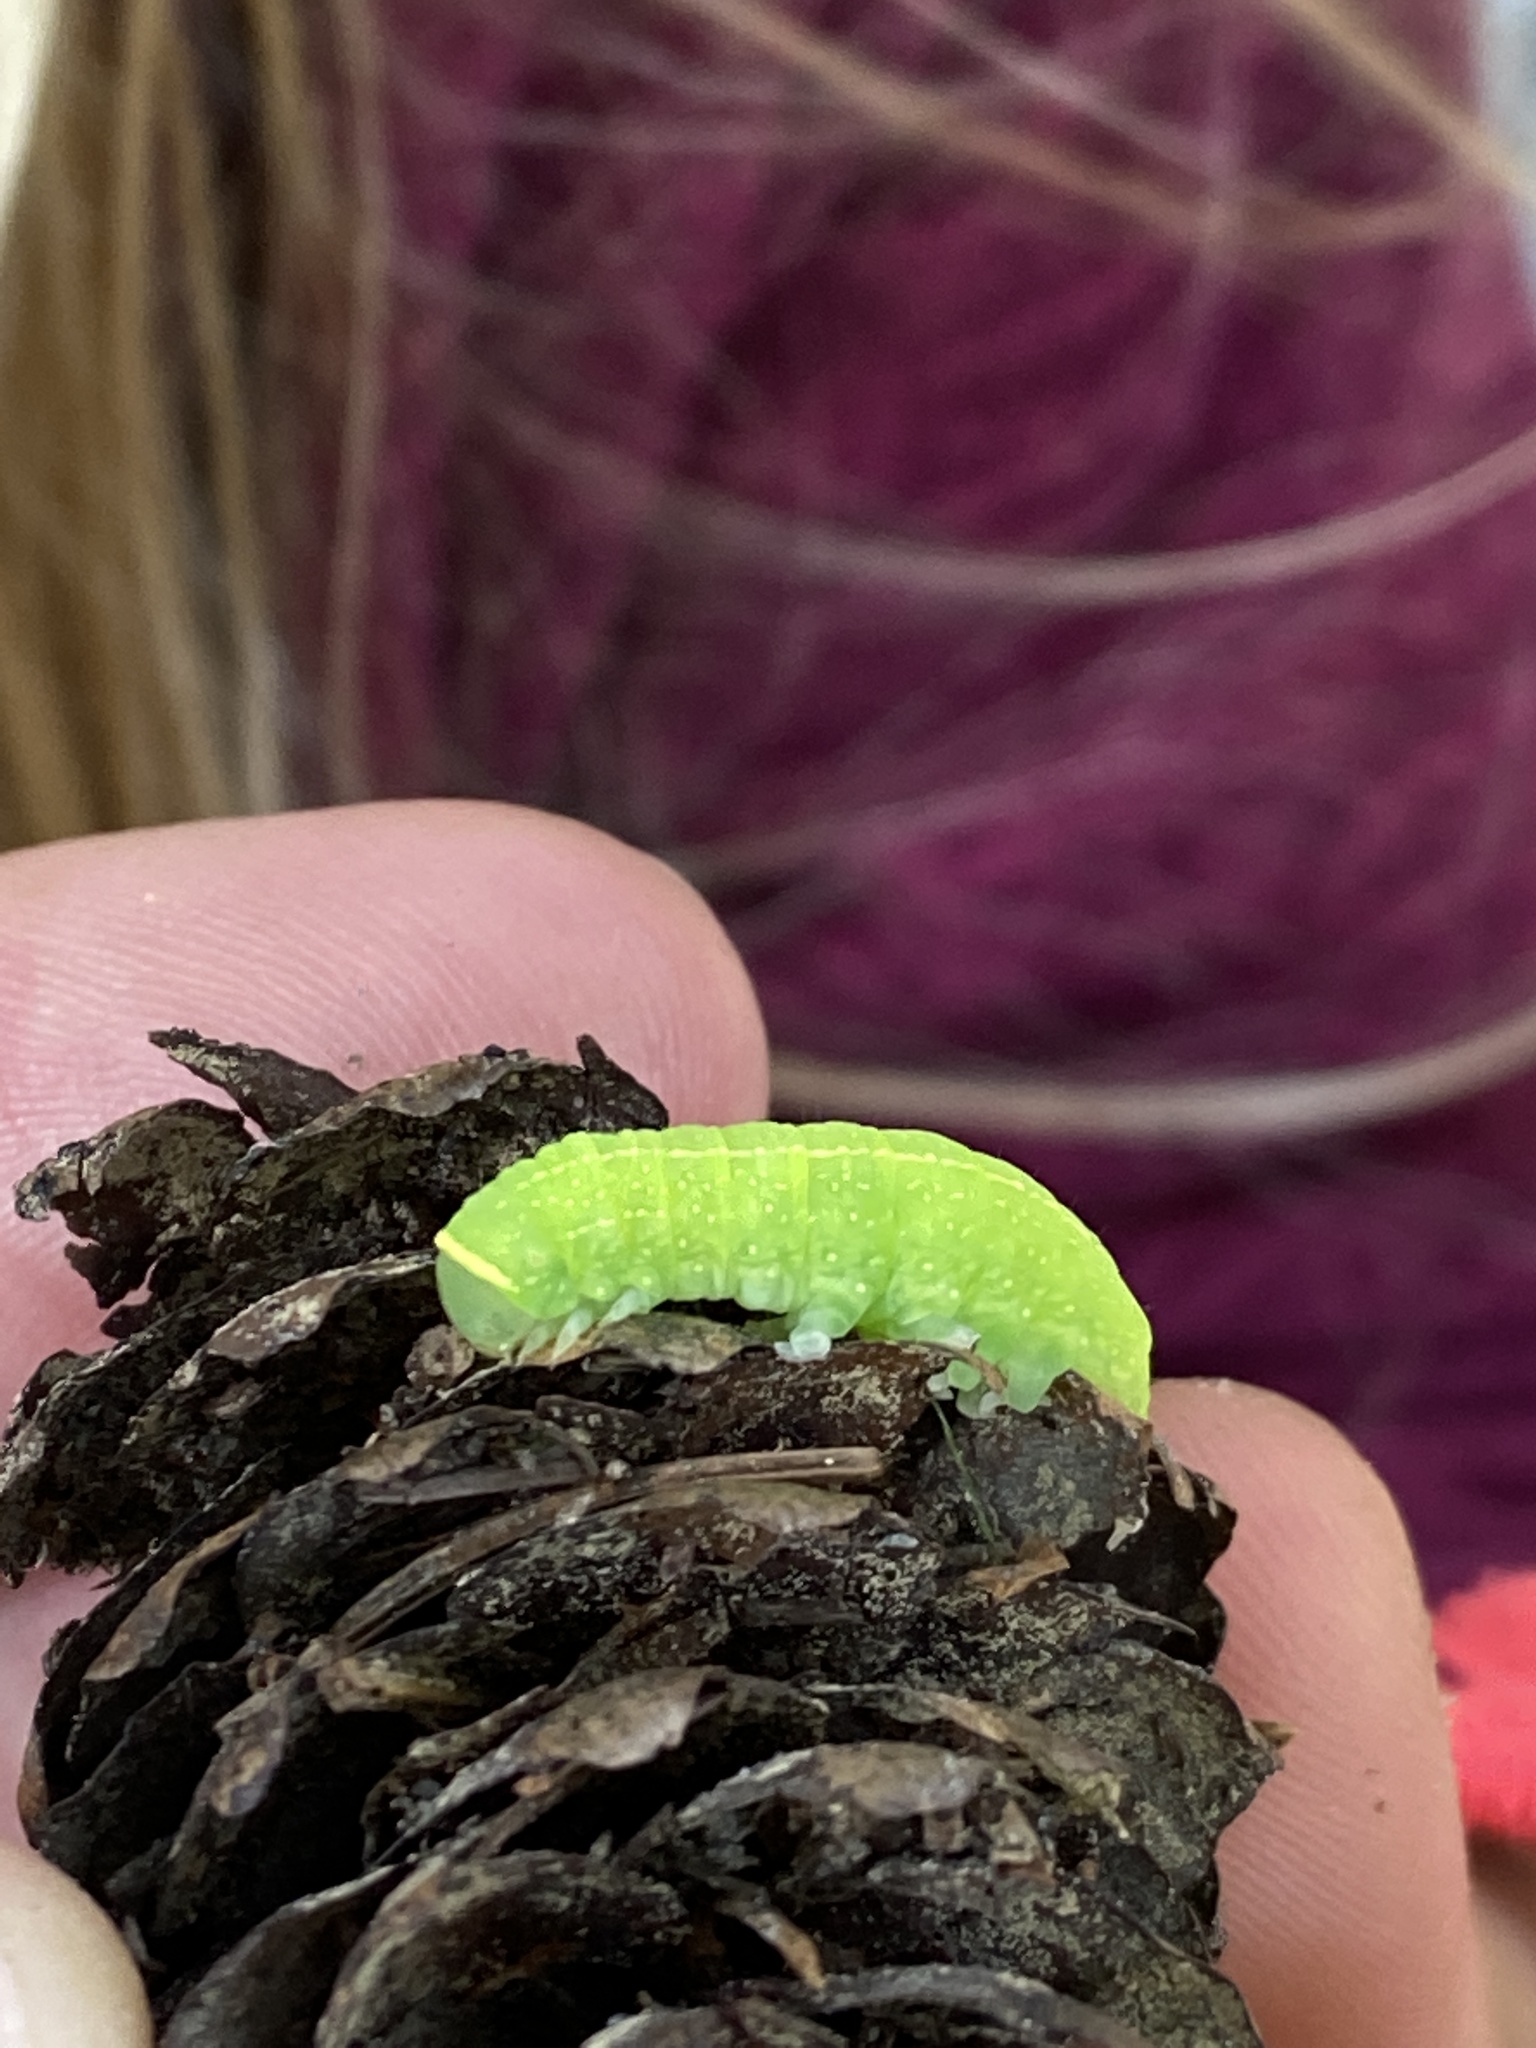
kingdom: Animalia
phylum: Arthropoda
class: Insecta
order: Lepidoptera
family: Nolidae
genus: Pseudoips
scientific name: Pseudoips prasinana
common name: Green silver-lines
